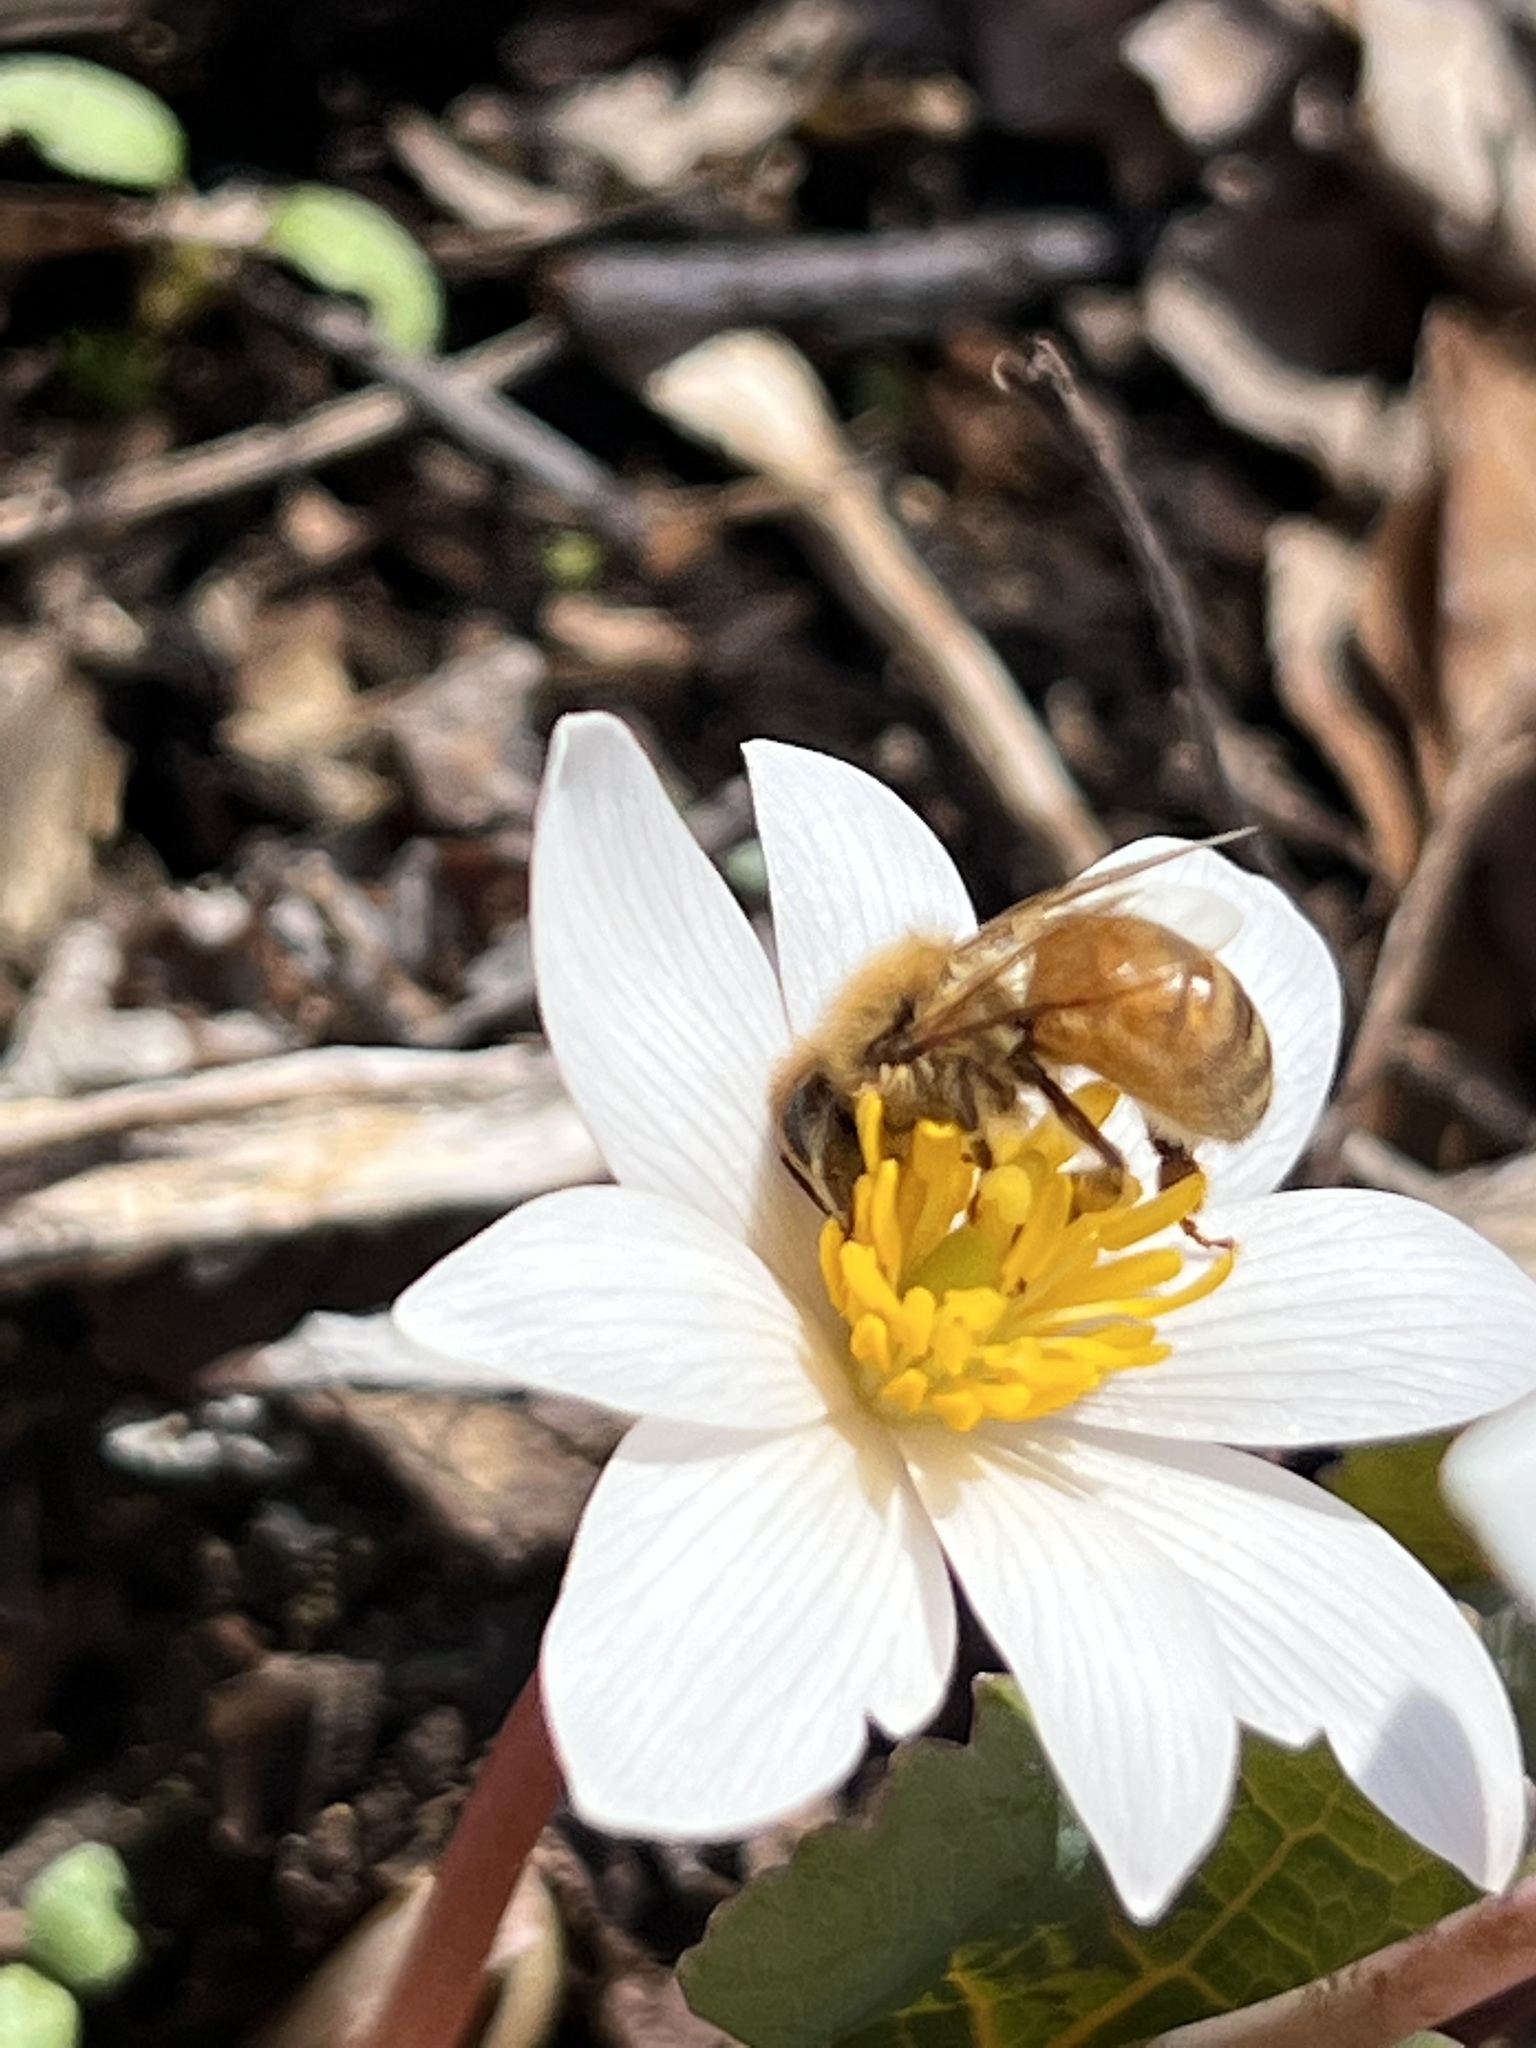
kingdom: Animalia
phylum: Arthropoda
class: Insecta
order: Hymenoptera
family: Apidae
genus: Apis
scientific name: Apis mellifera
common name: Honey bee
